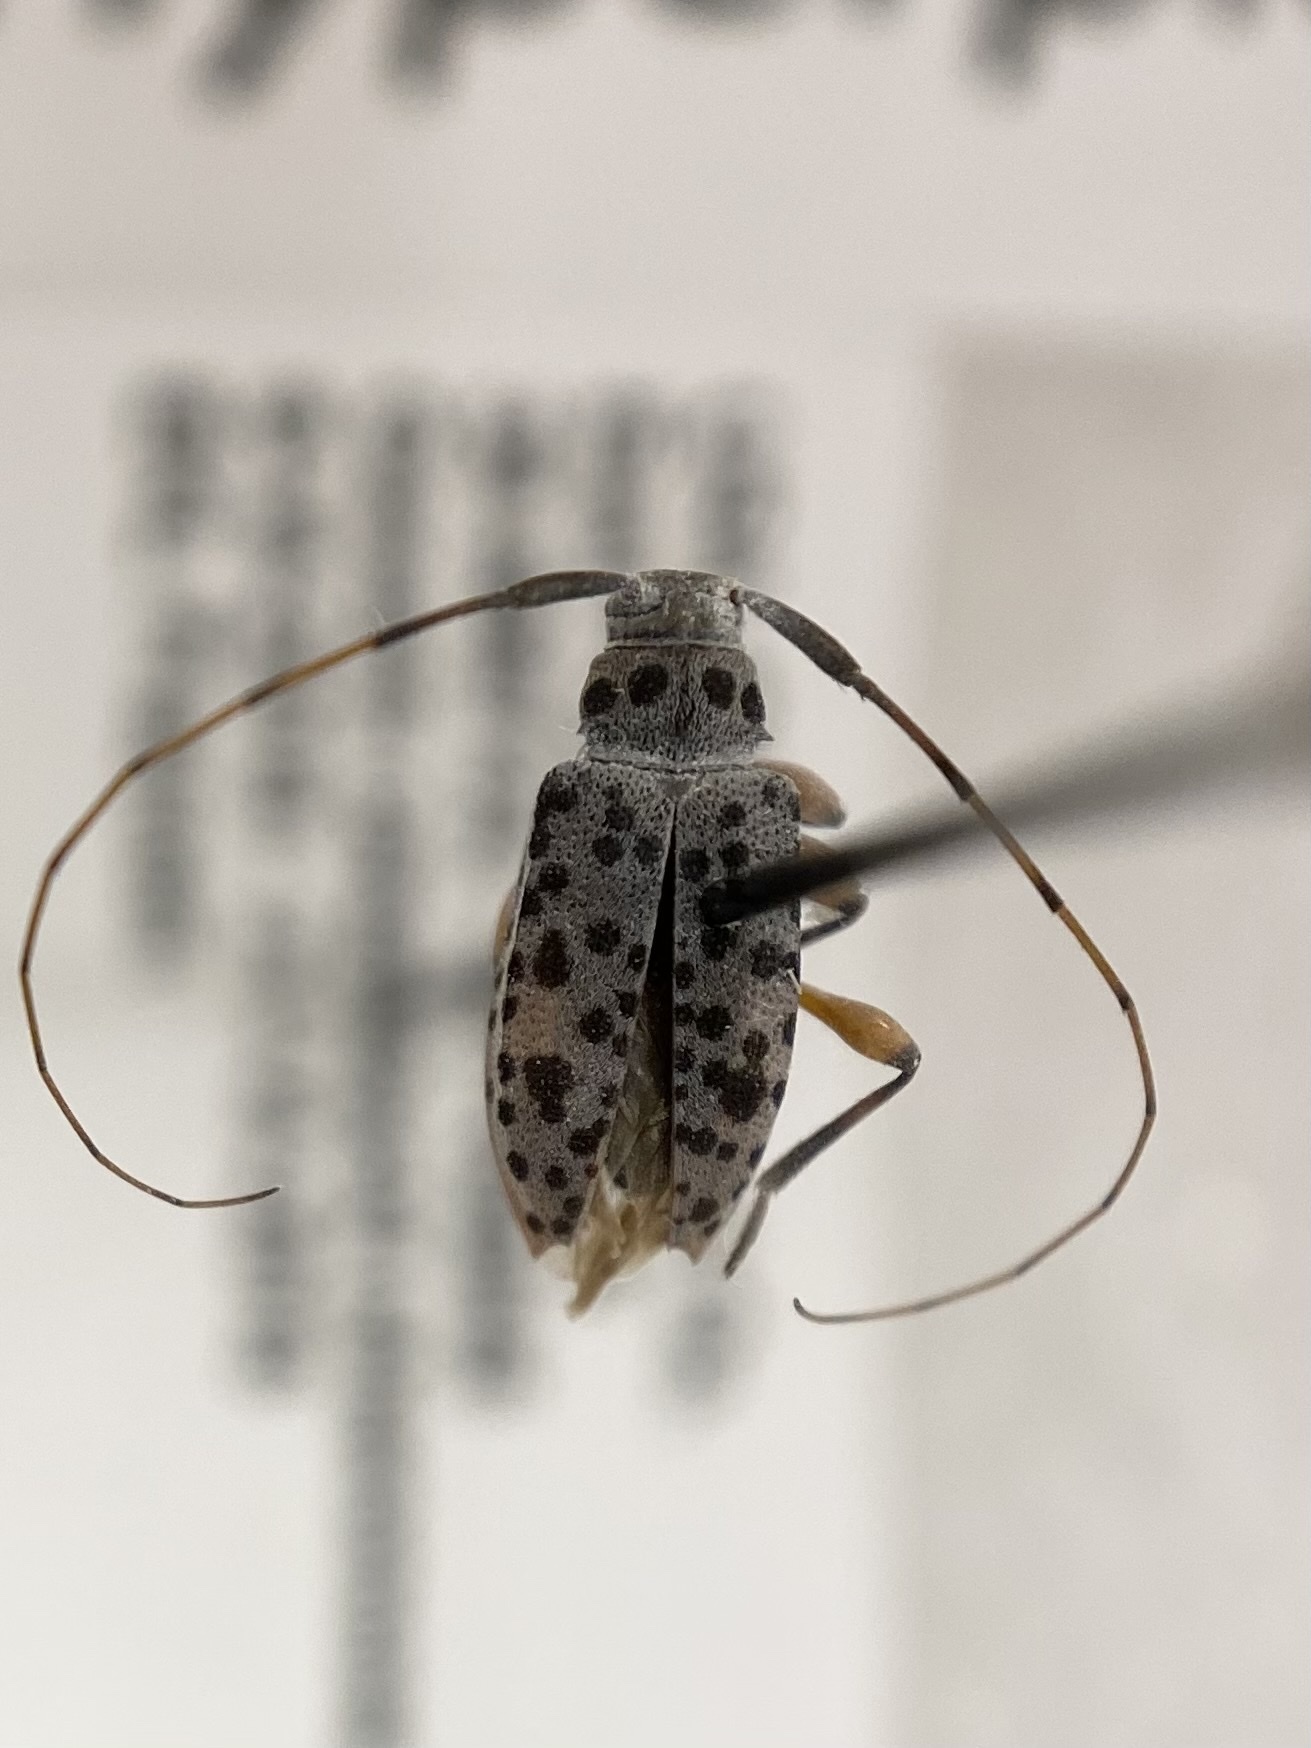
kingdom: Animalia
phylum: Arthropoda
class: Insecta
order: Coleoptera
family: Cerambycidae
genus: Hyperplatys
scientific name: Hyperplatys aspersa
